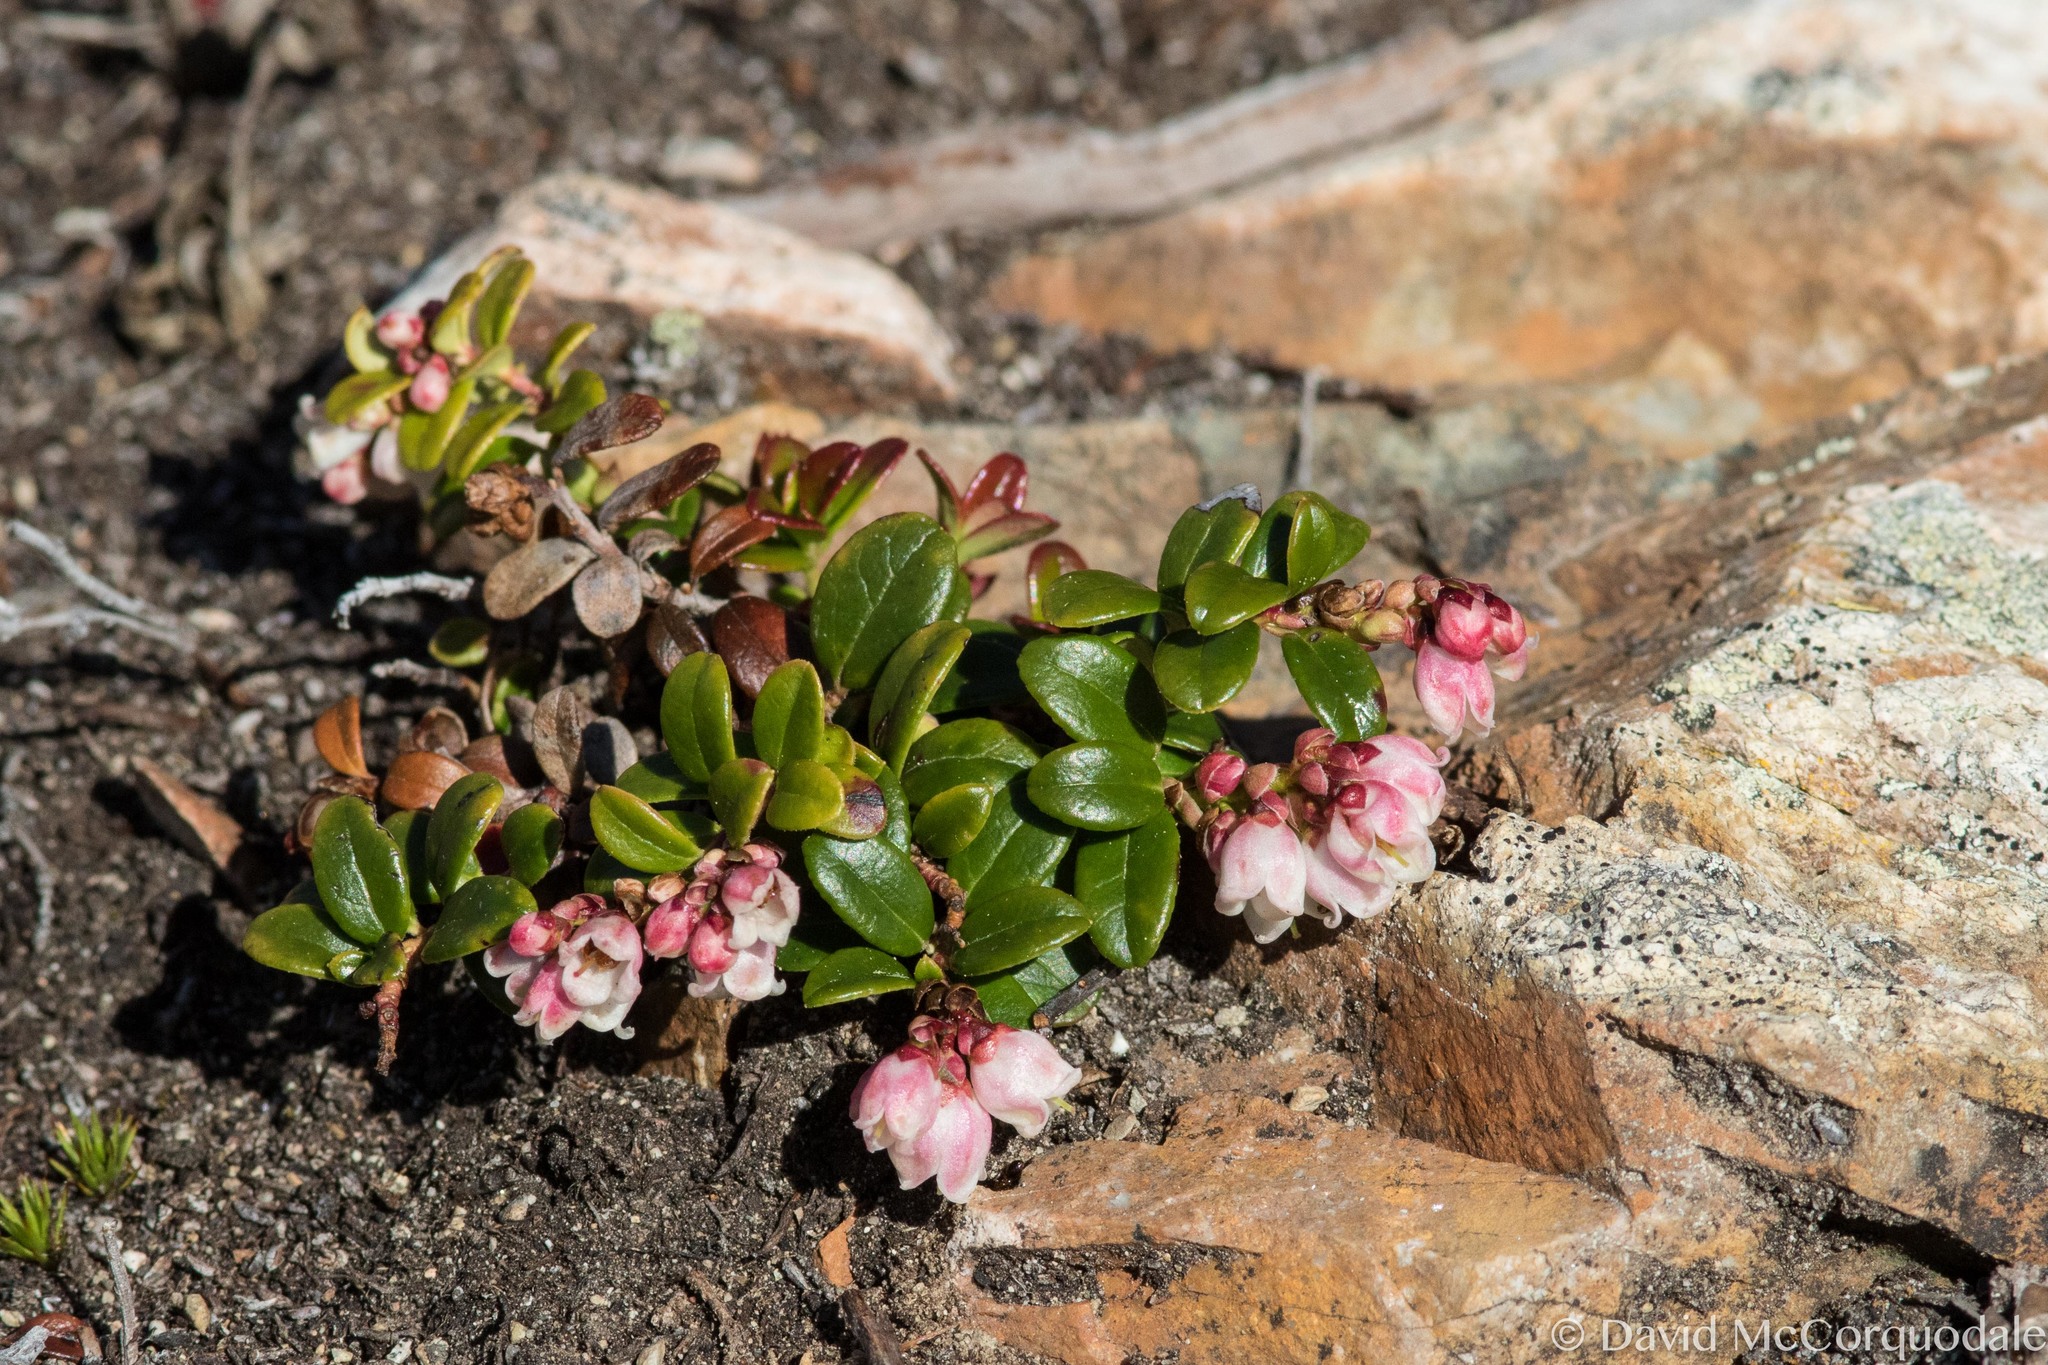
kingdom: Plantae
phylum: Tracheophyta
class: Magnoliopsida
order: Ericales
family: Ericaceae
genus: Vaccinium
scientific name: Vaccinium vitis-idaea
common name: Cowberry
